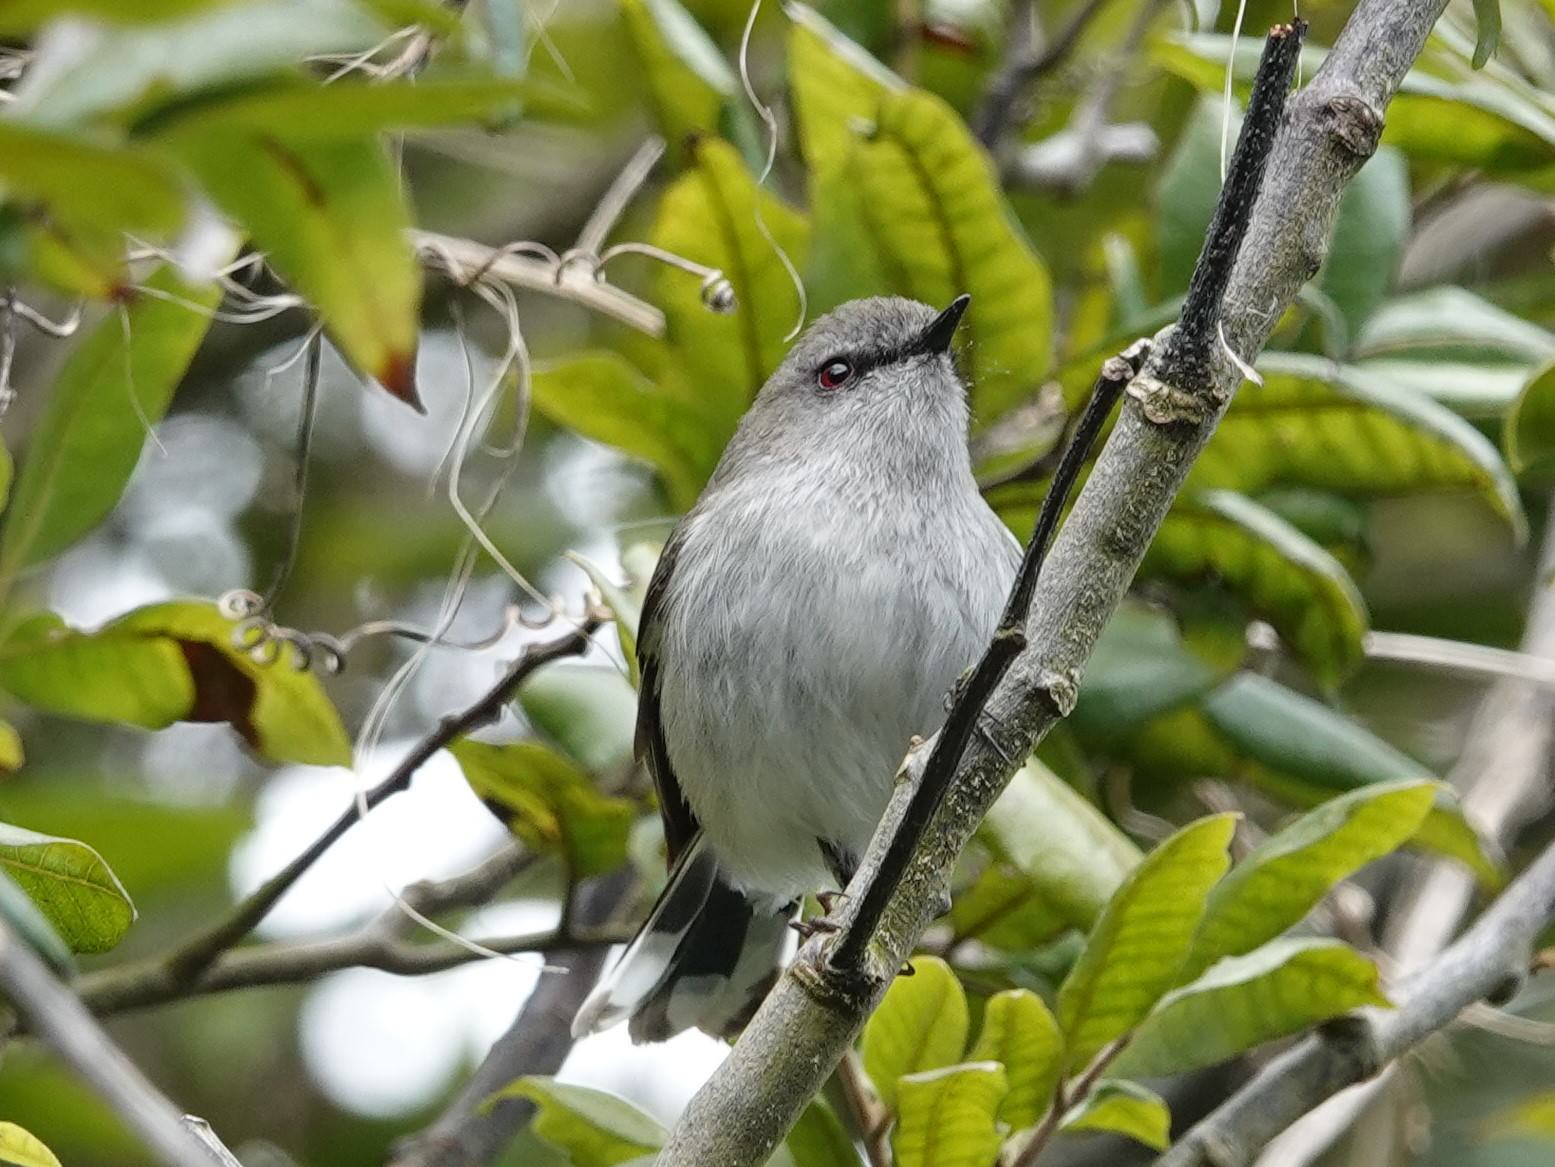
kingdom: Animalia
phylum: Chordata
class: Aves
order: Passeriformes
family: Acanthizidae
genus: Gerygone
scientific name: Gerygone igata
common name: Grey gerygone
